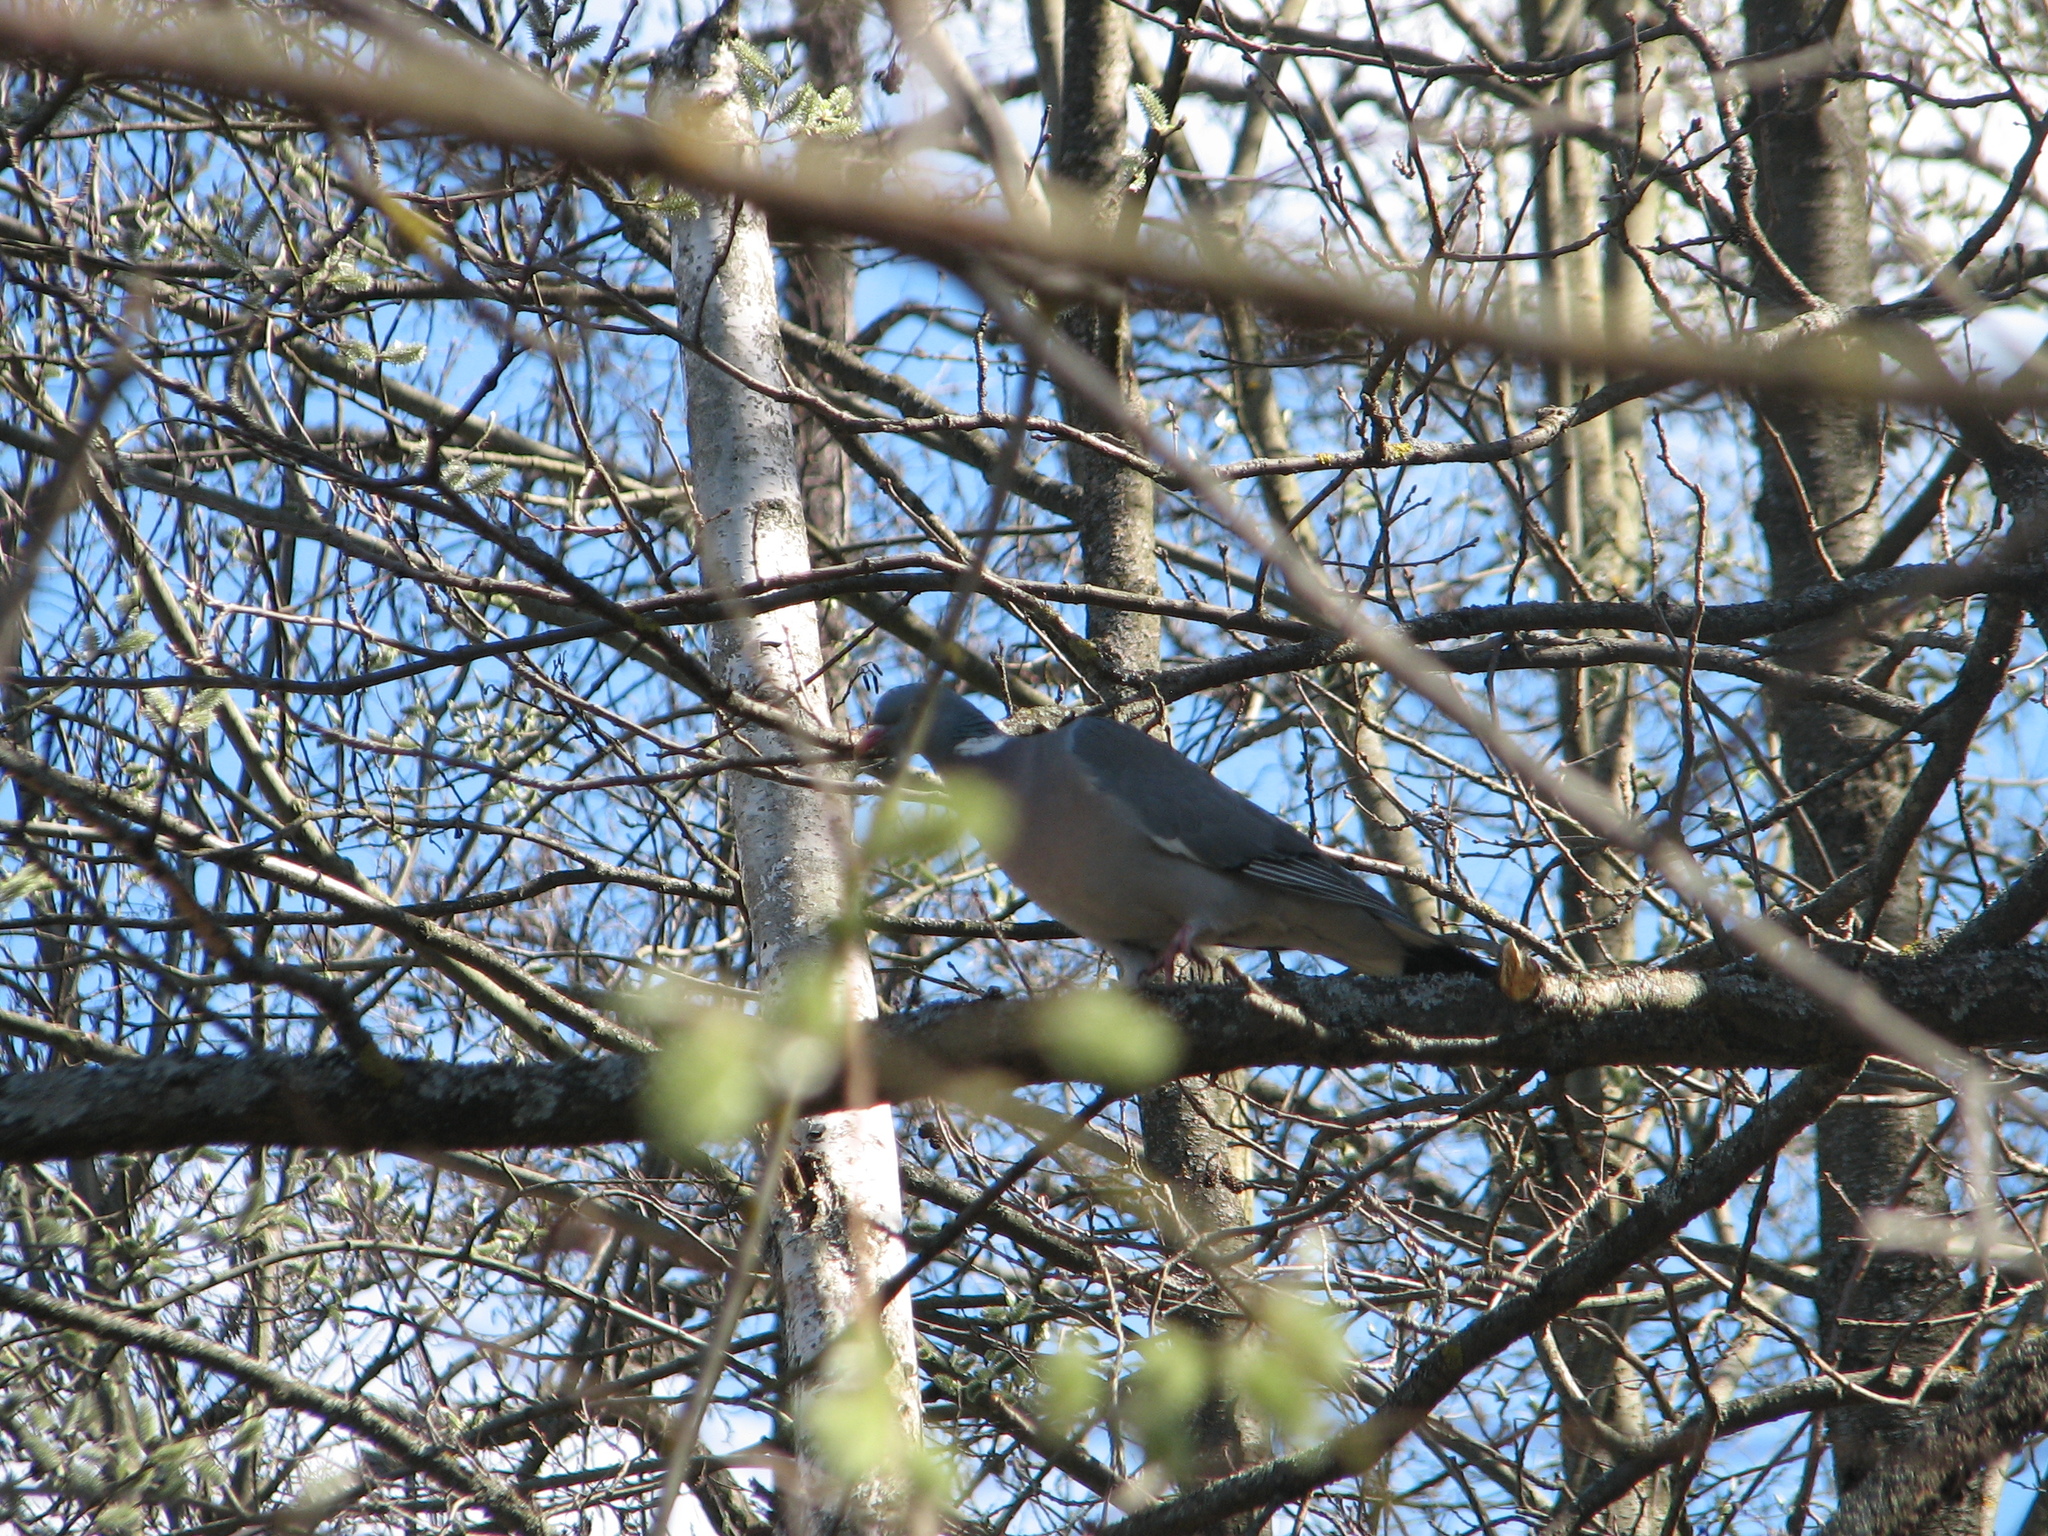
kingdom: Animalia
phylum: Chordata
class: Aves
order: Columbiformes
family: Columbidae
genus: Columba
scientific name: Columba palumbus
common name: Common wood pigeon
